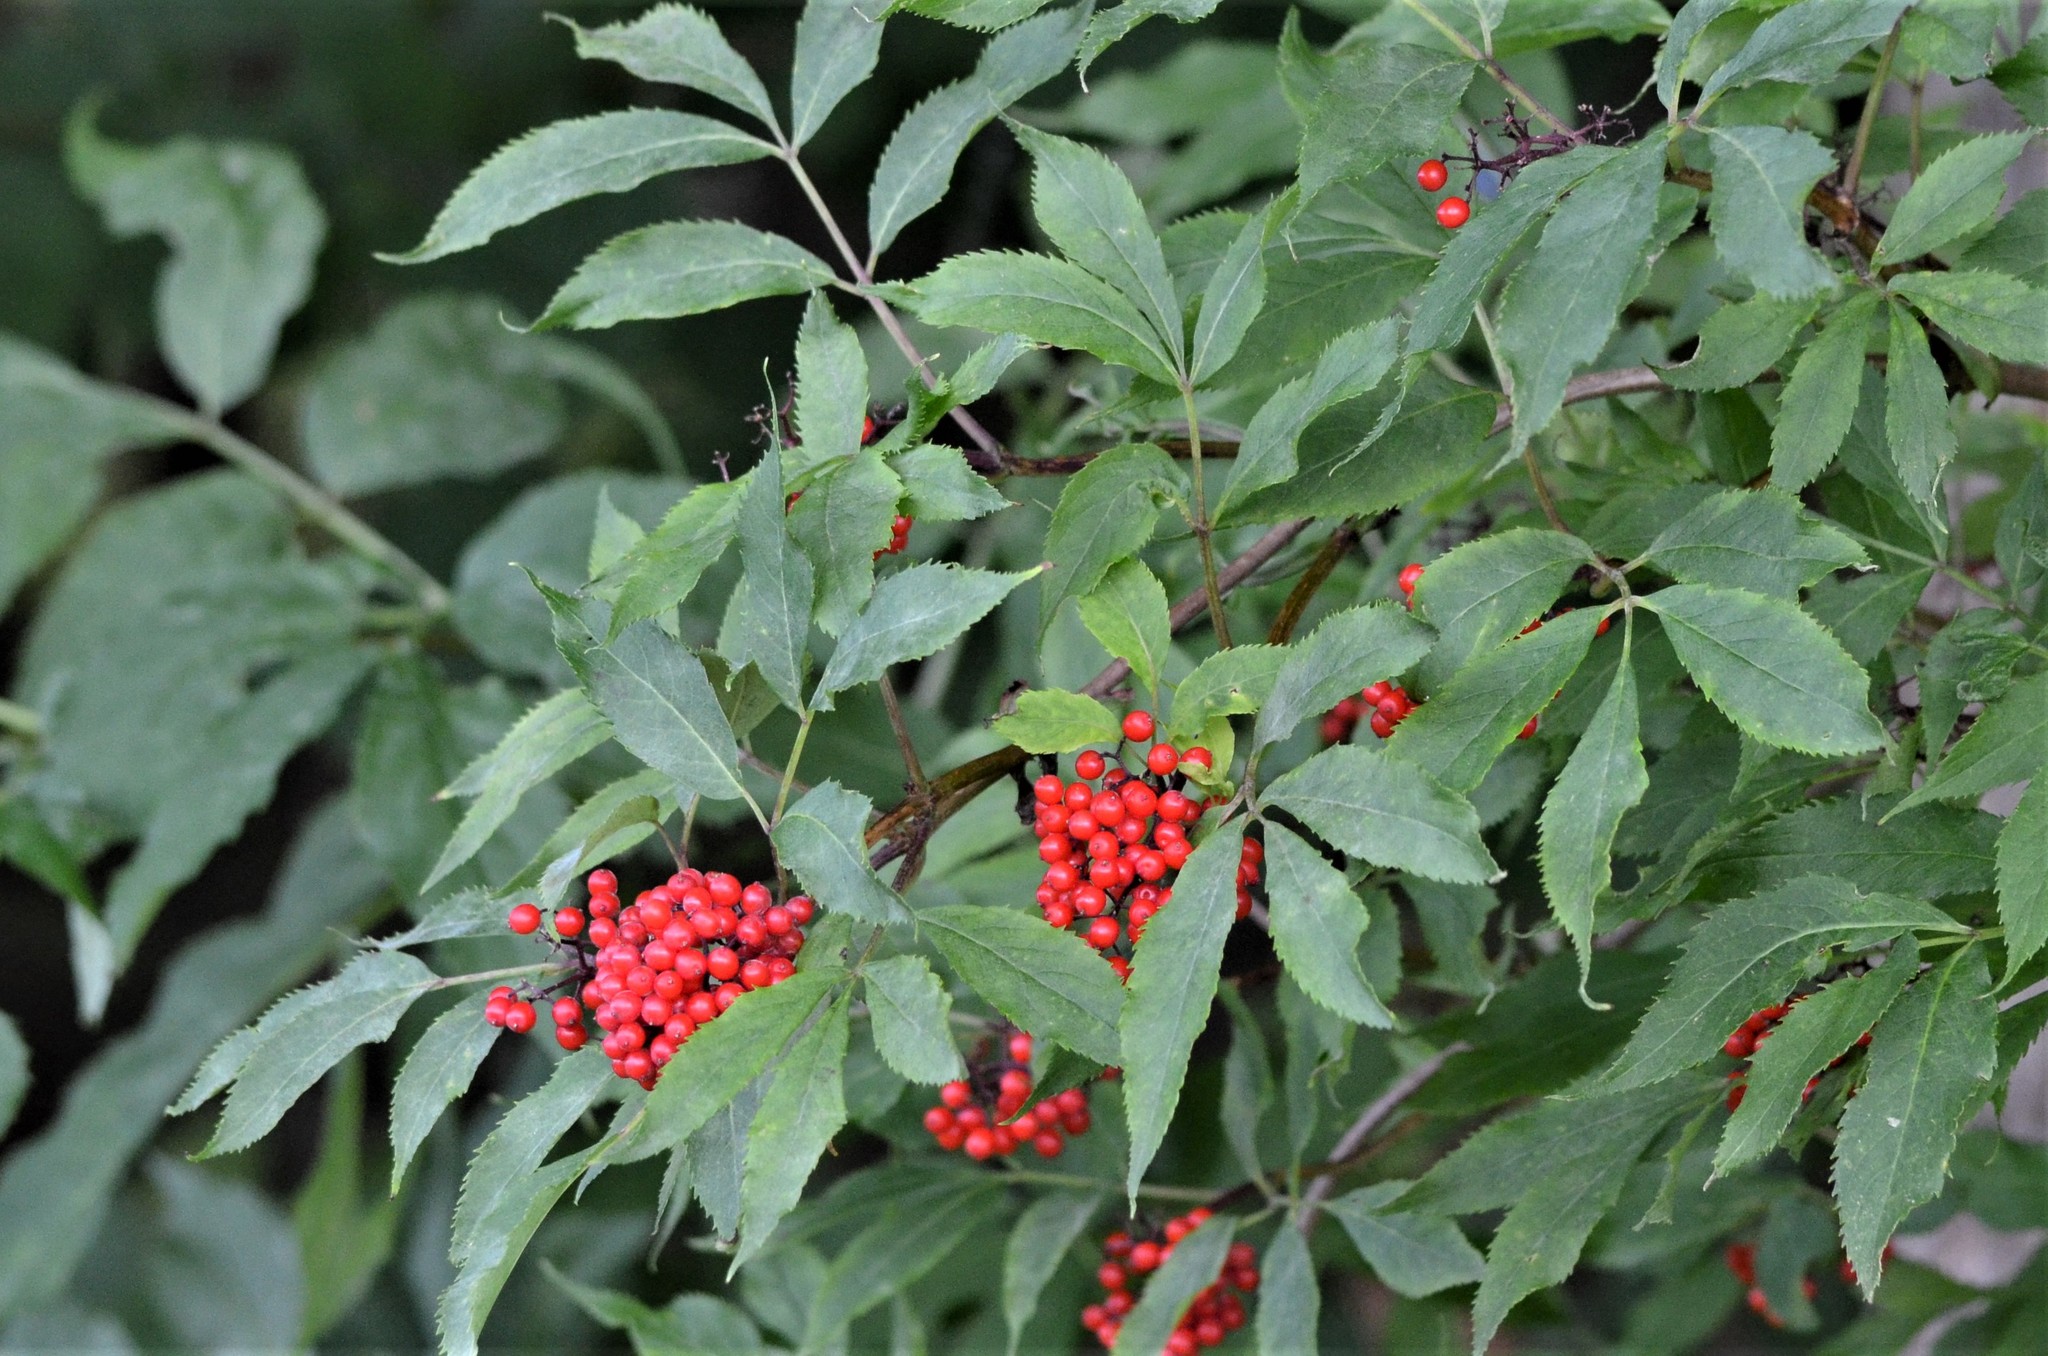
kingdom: Plantae
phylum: Tracheophyta
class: Magnoliopsida
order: Dipsacales
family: Viburnaceae
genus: Sambucus
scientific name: Sambucus racemosa
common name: Red-berried elder
